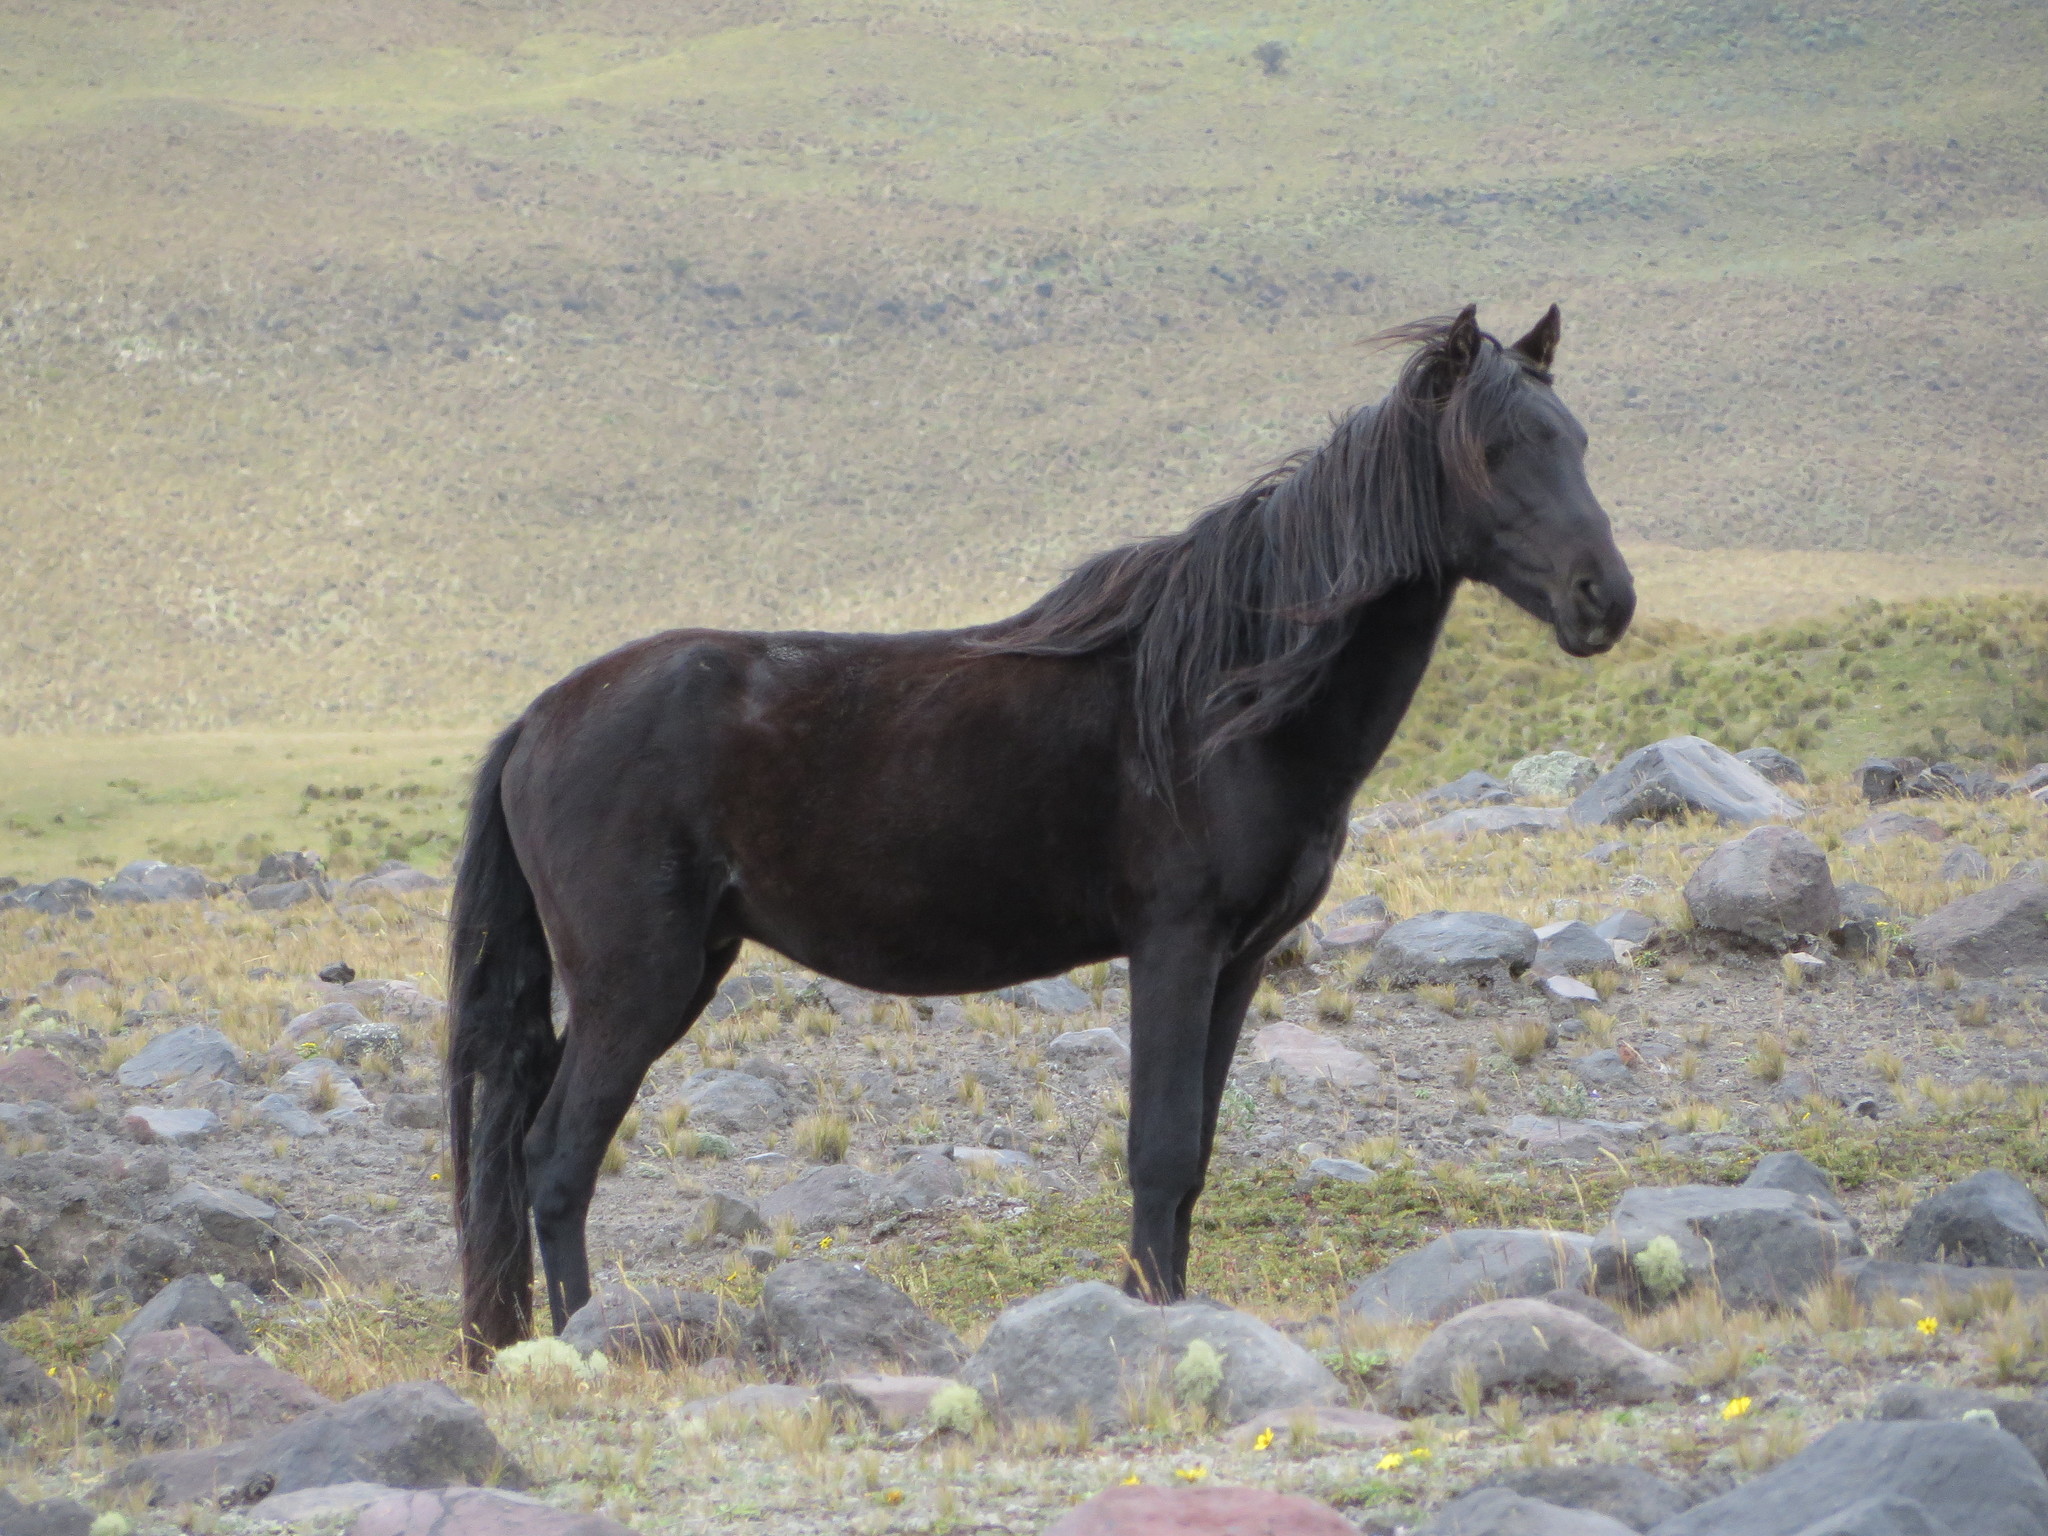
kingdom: Animalia
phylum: Chordata
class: Mammalia
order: Perissodactyla
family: Equidae
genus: Equus
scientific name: Equus caballus
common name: Horse
